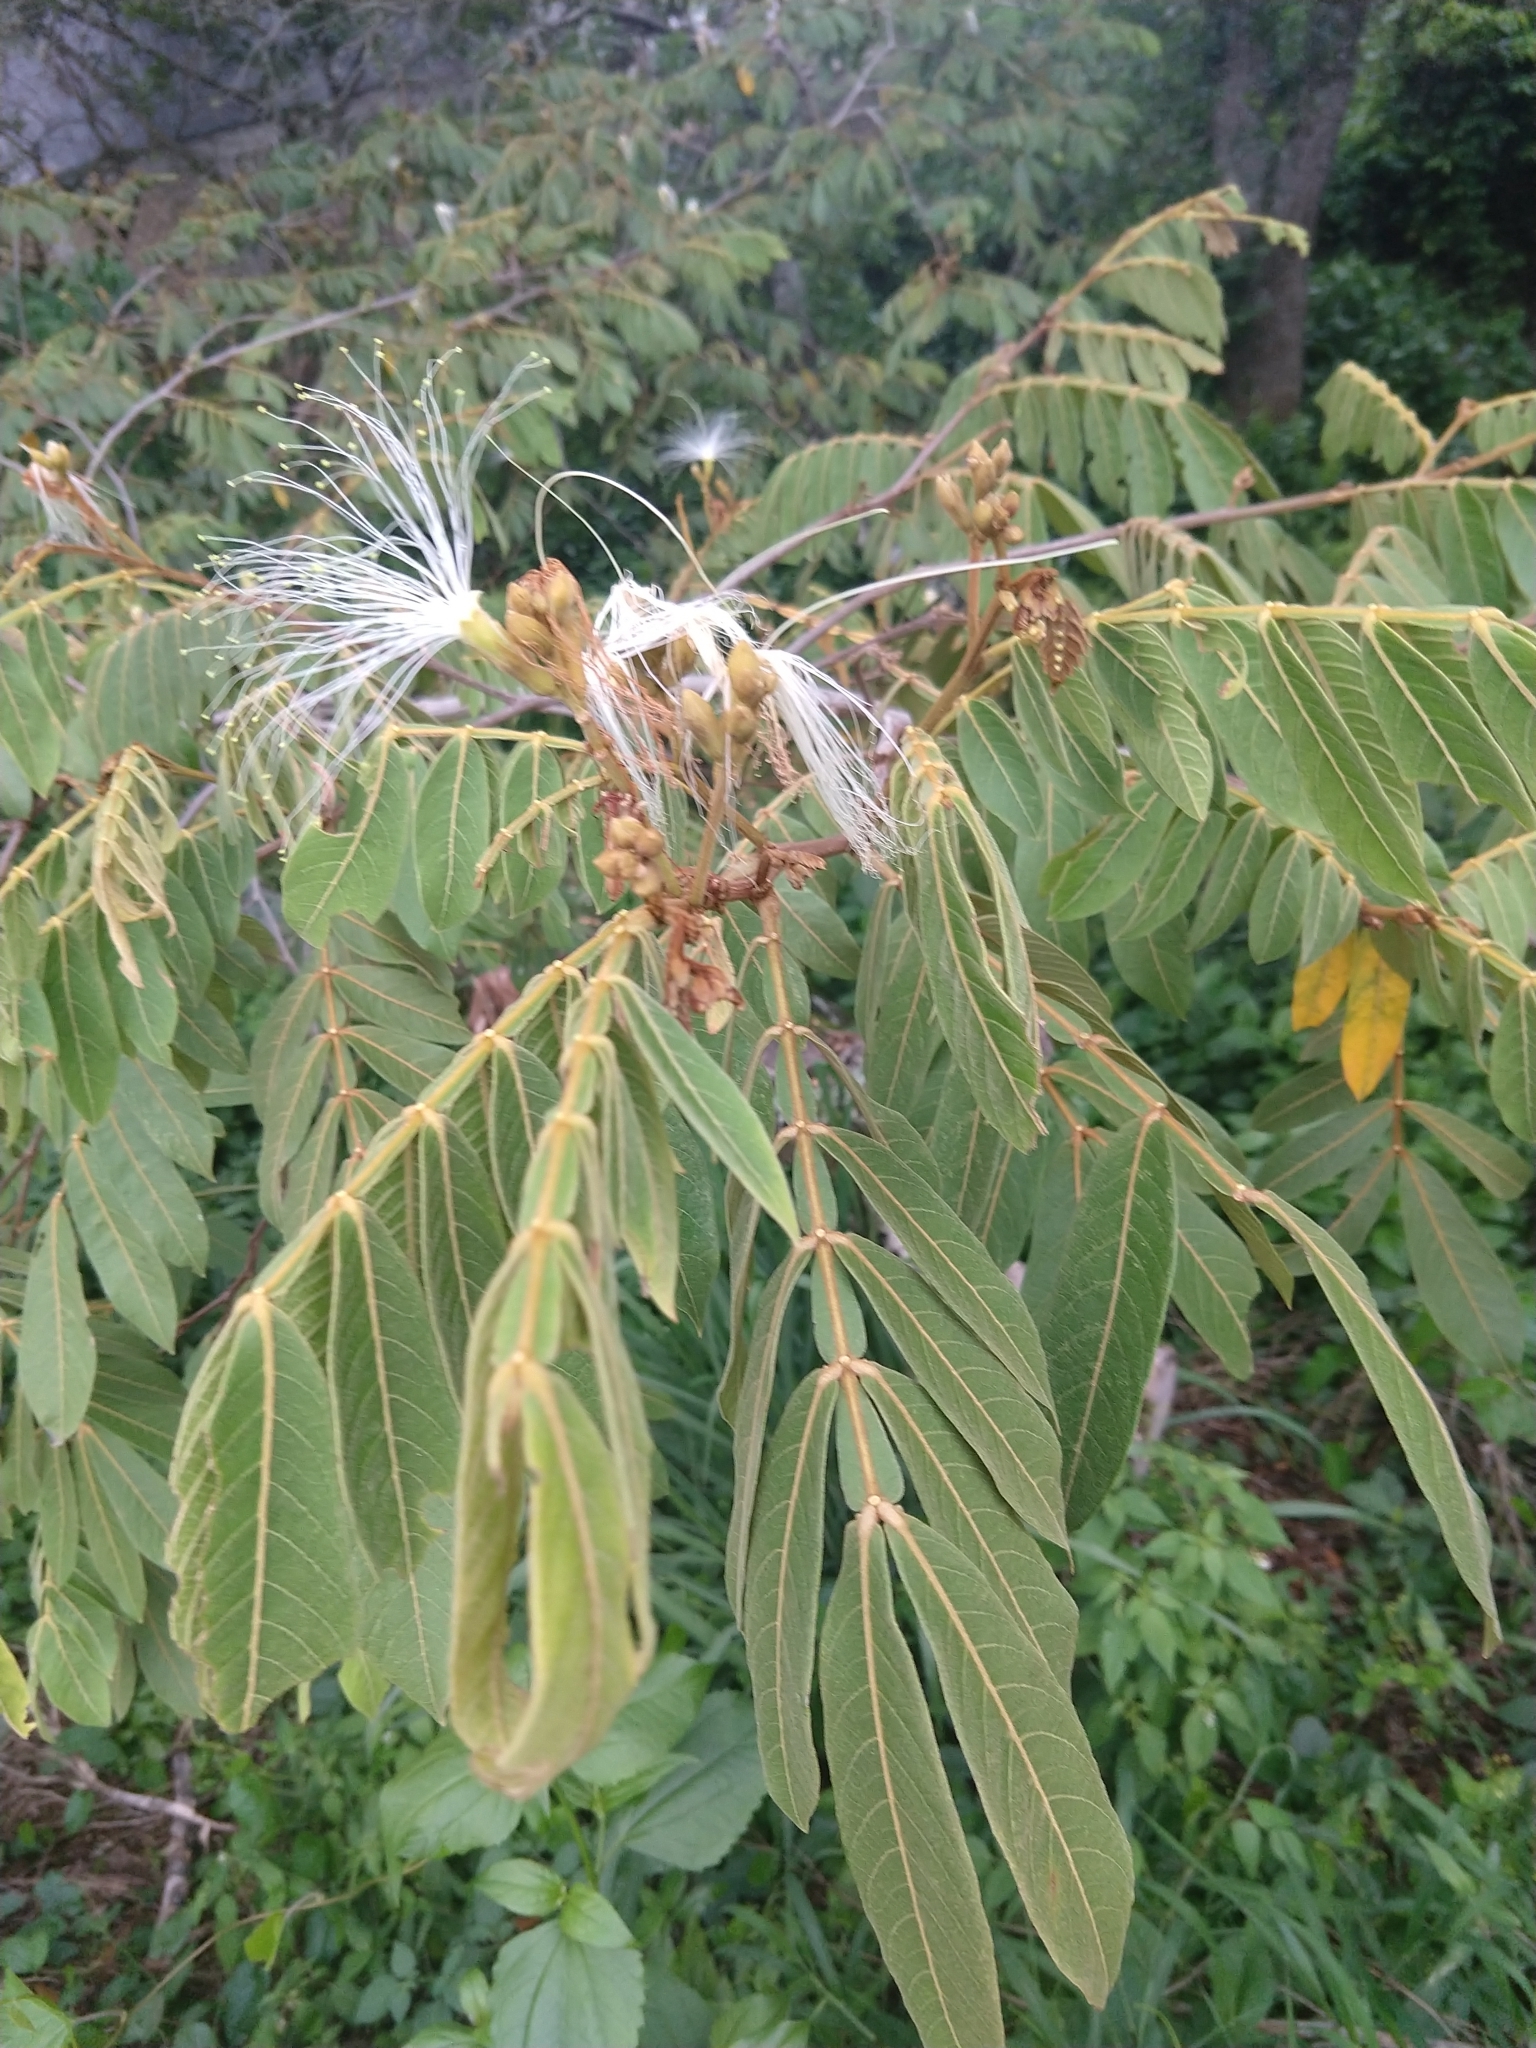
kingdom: Plantae
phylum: Tracheophyta
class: Magnoliopsida
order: Fabales
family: Fabaceae
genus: Inga
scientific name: Inga vera
